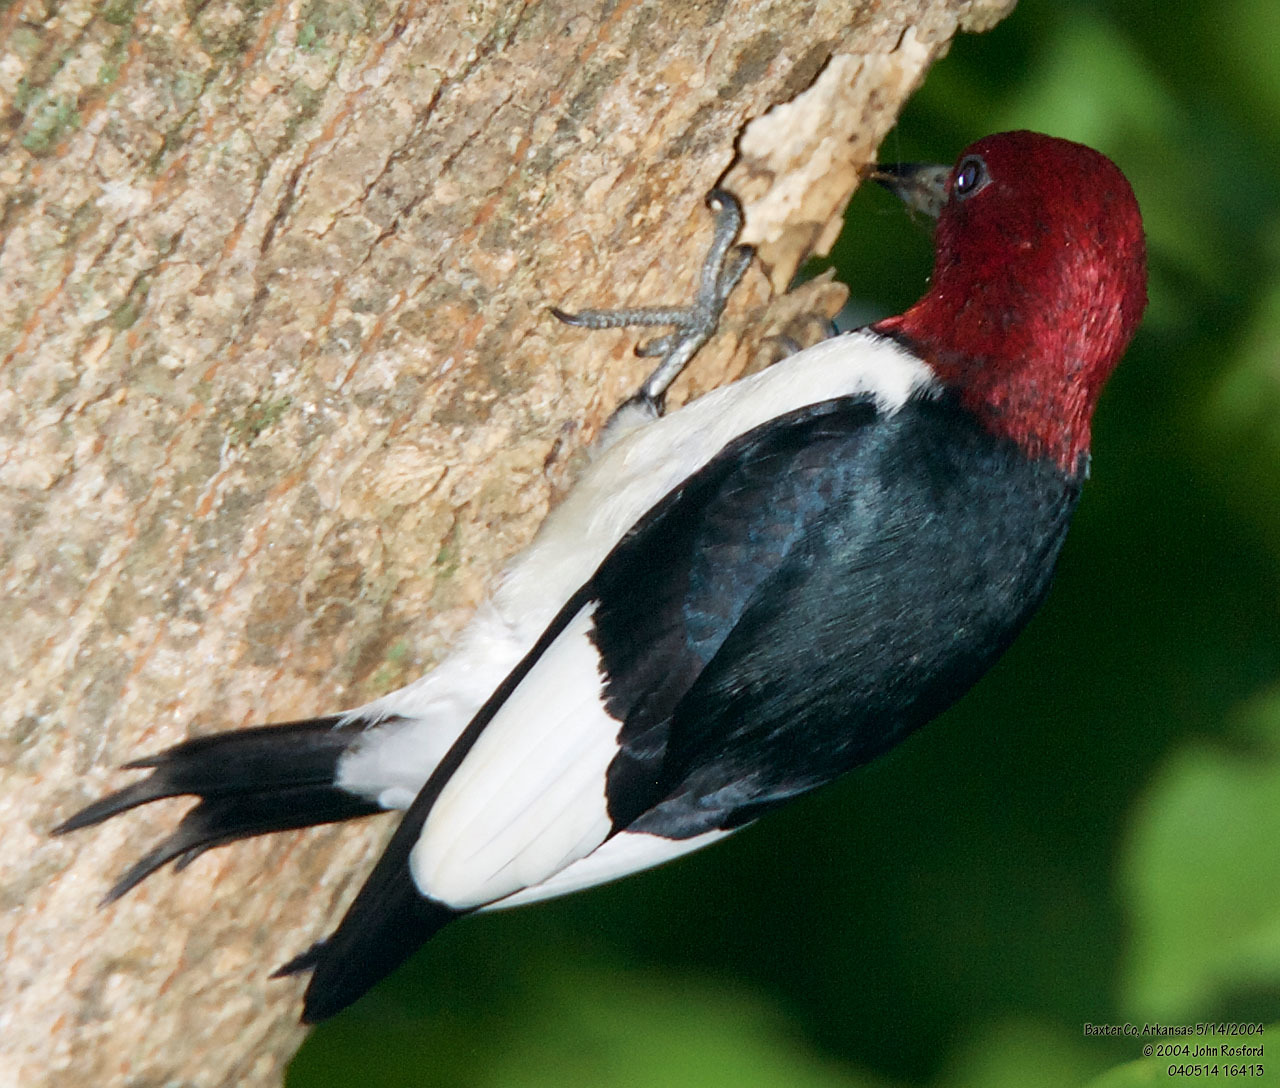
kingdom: Animalia
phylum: Chordata
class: Aves
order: Piciformes
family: Picidae
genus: Melanerpes
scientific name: Melanerpes erythrocephalus
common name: Red-headed woodpecker
